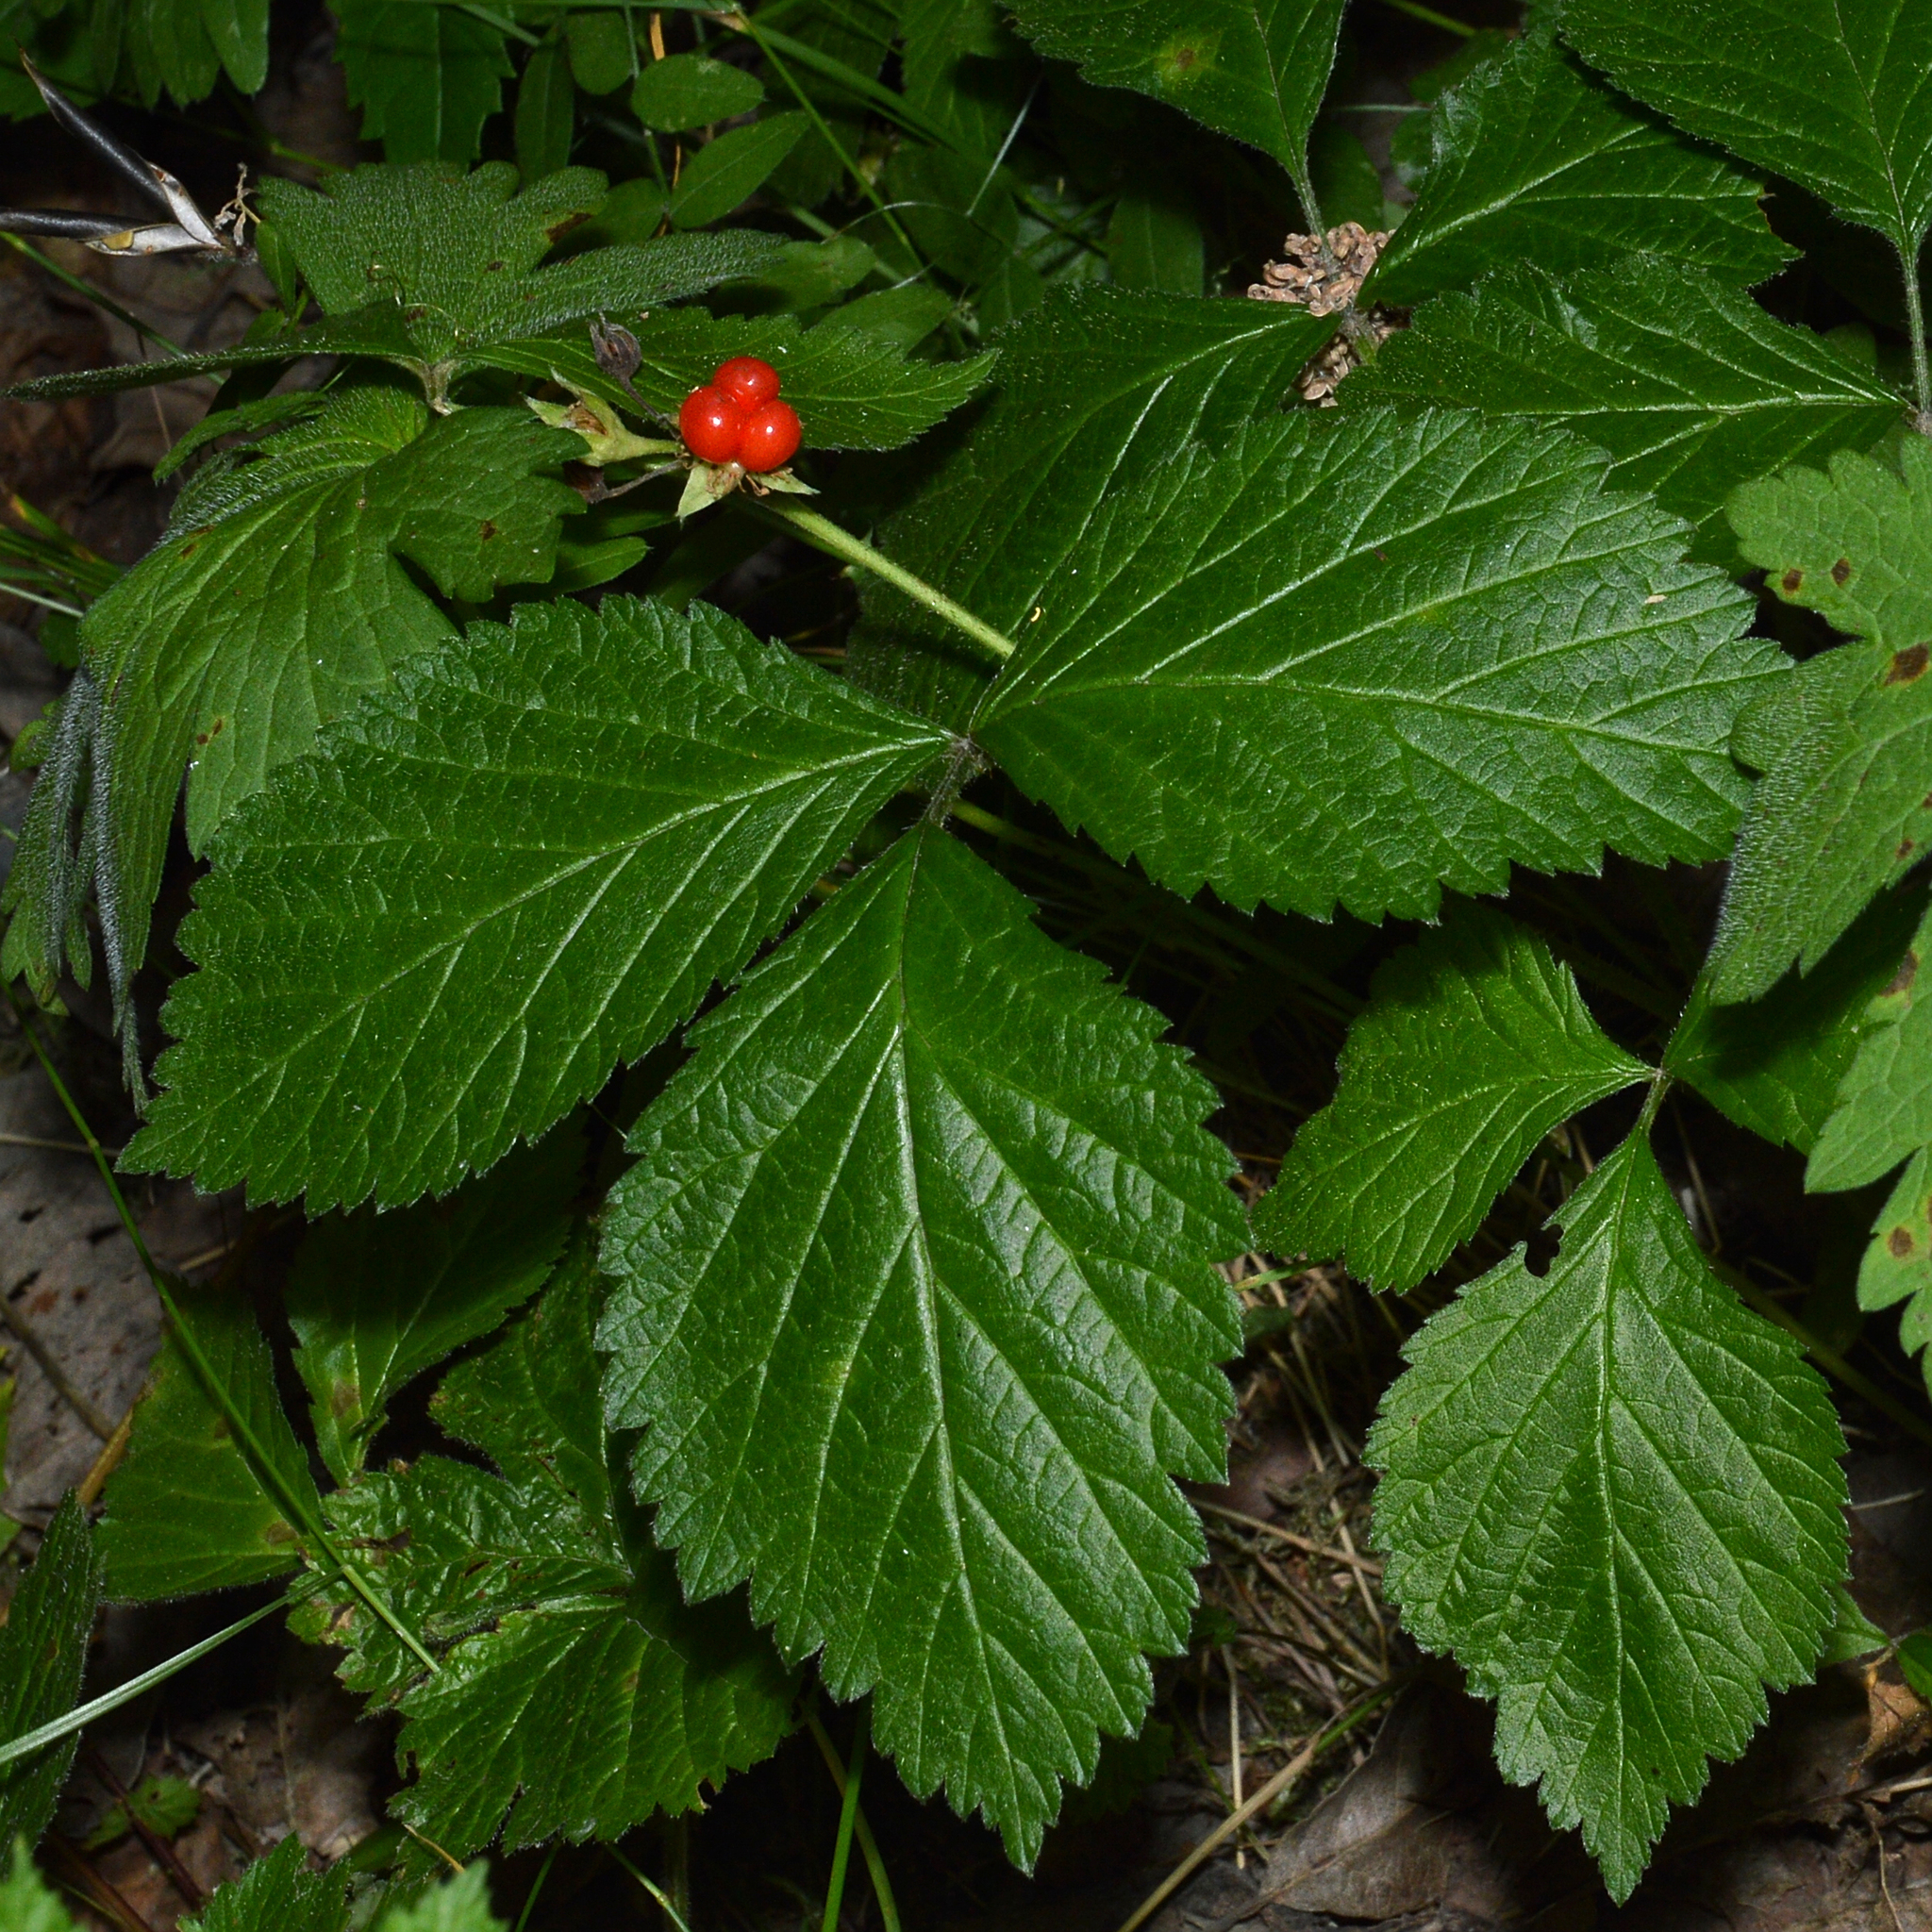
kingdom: Plantae
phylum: Tracheophyta
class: Magnoliopsida
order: Rosales
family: Rosaceae
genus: Rubus
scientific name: Rubus saxatilis
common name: Stone bramble
